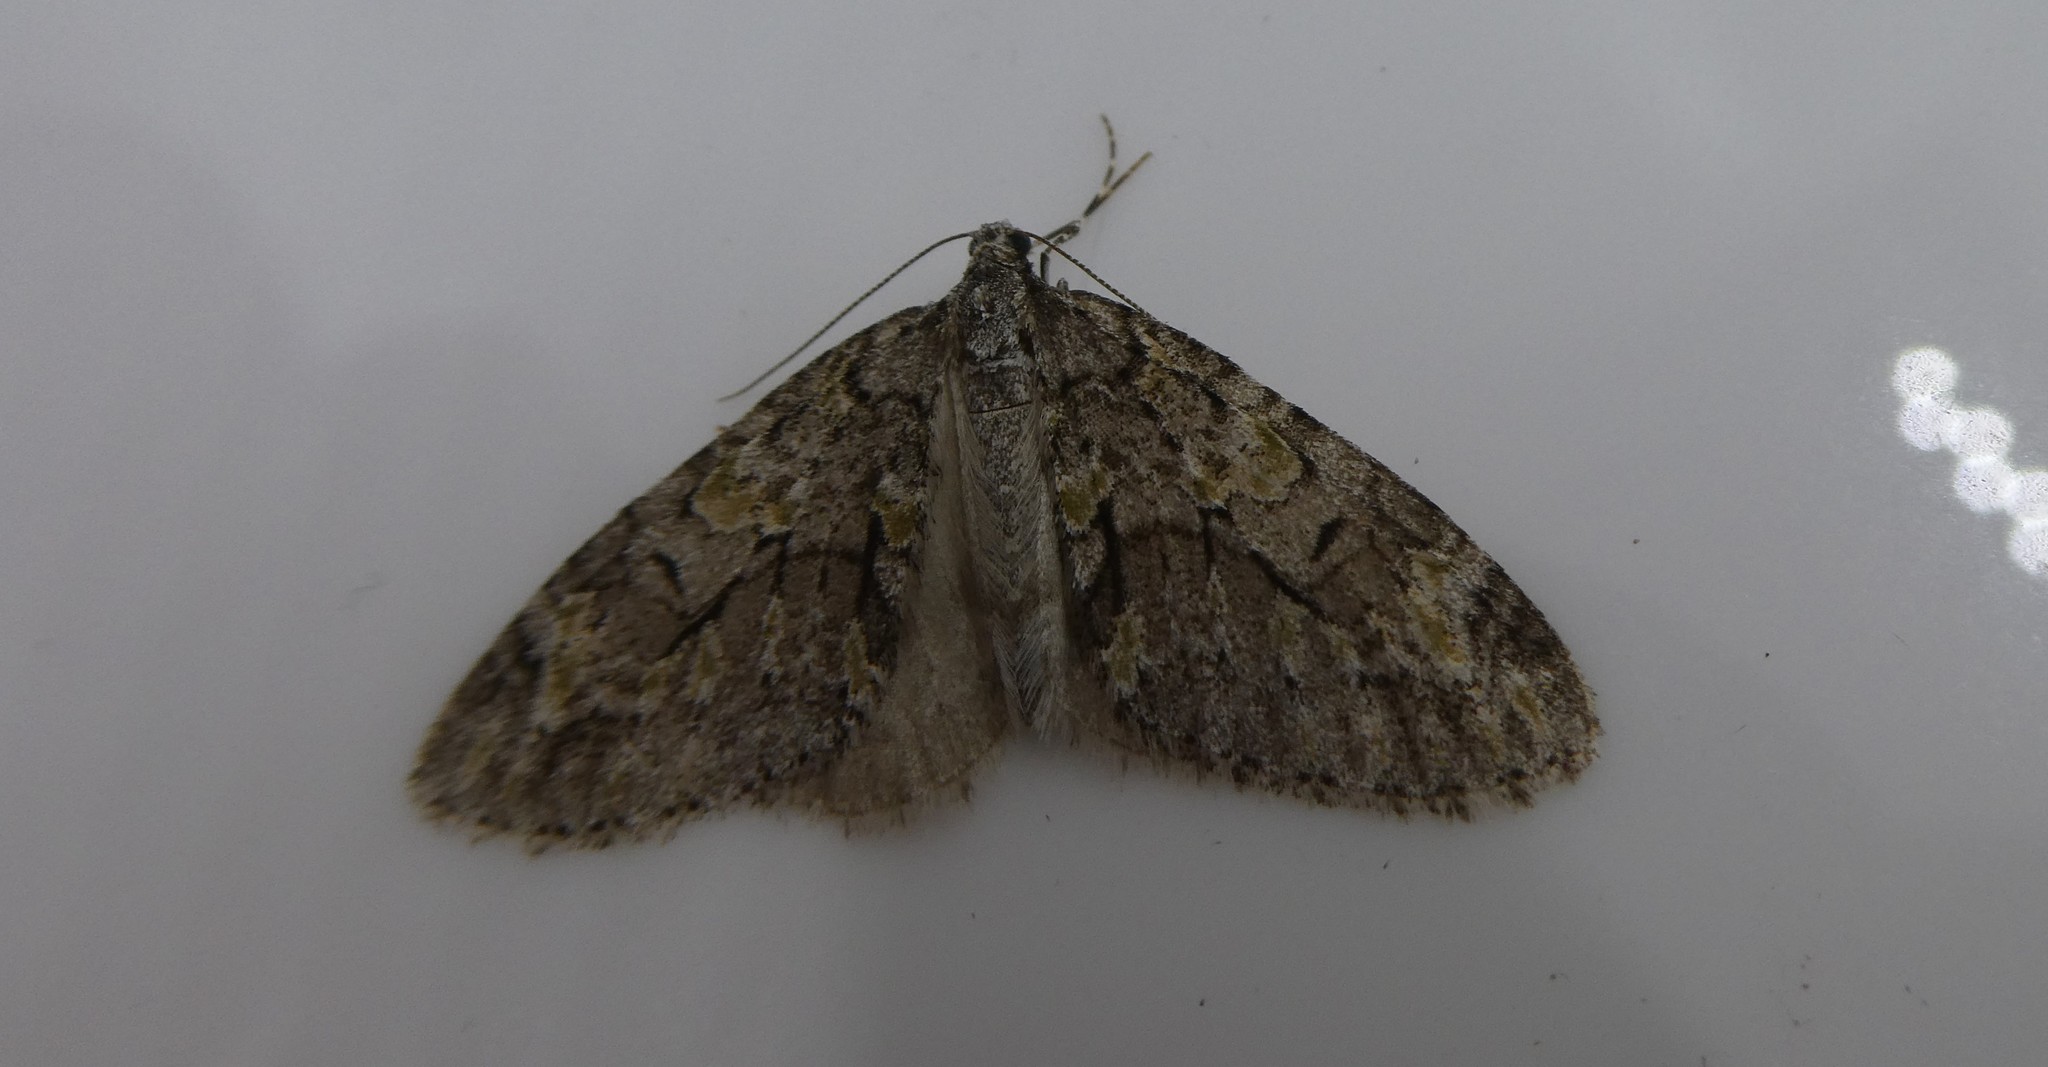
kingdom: Animalia
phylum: Arthropoda
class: Insecta
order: Lepidoptera
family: Geometridae
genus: Cladara
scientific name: Cladara limitaria
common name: Mottled gray carpet
